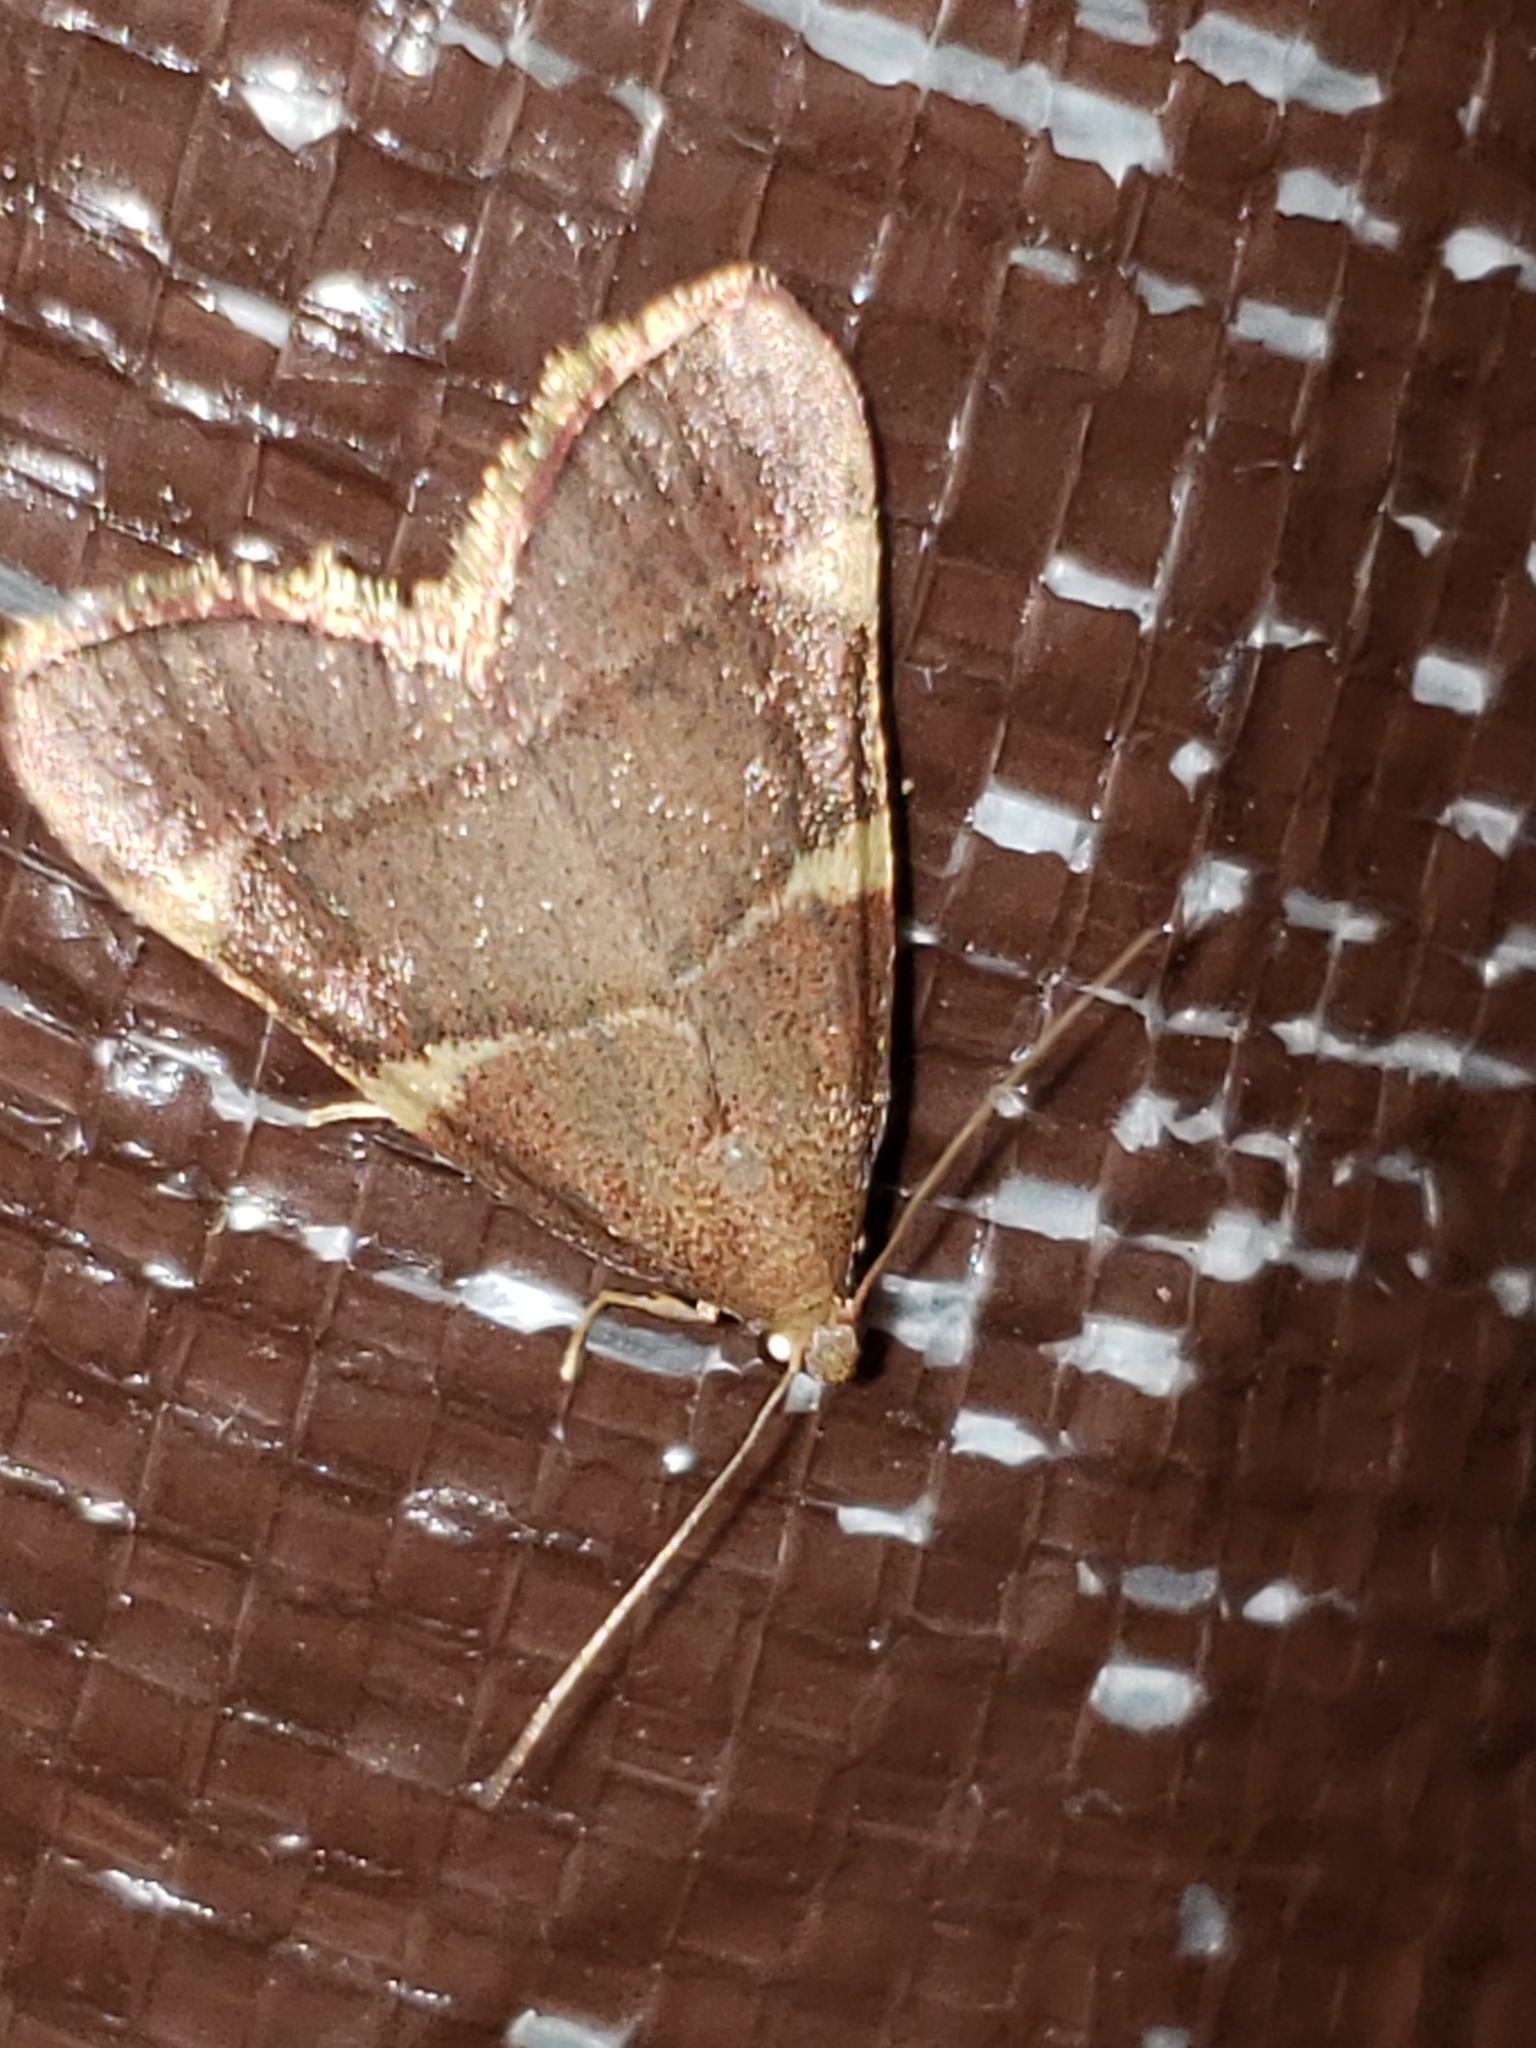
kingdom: Animalia
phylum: Arthropoda
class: Insecta
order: Lepidoptera
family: Pyralidae
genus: Hypsopygia
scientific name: Hypsopygia olinalis
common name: Yellow-fringed dolichomia moth
